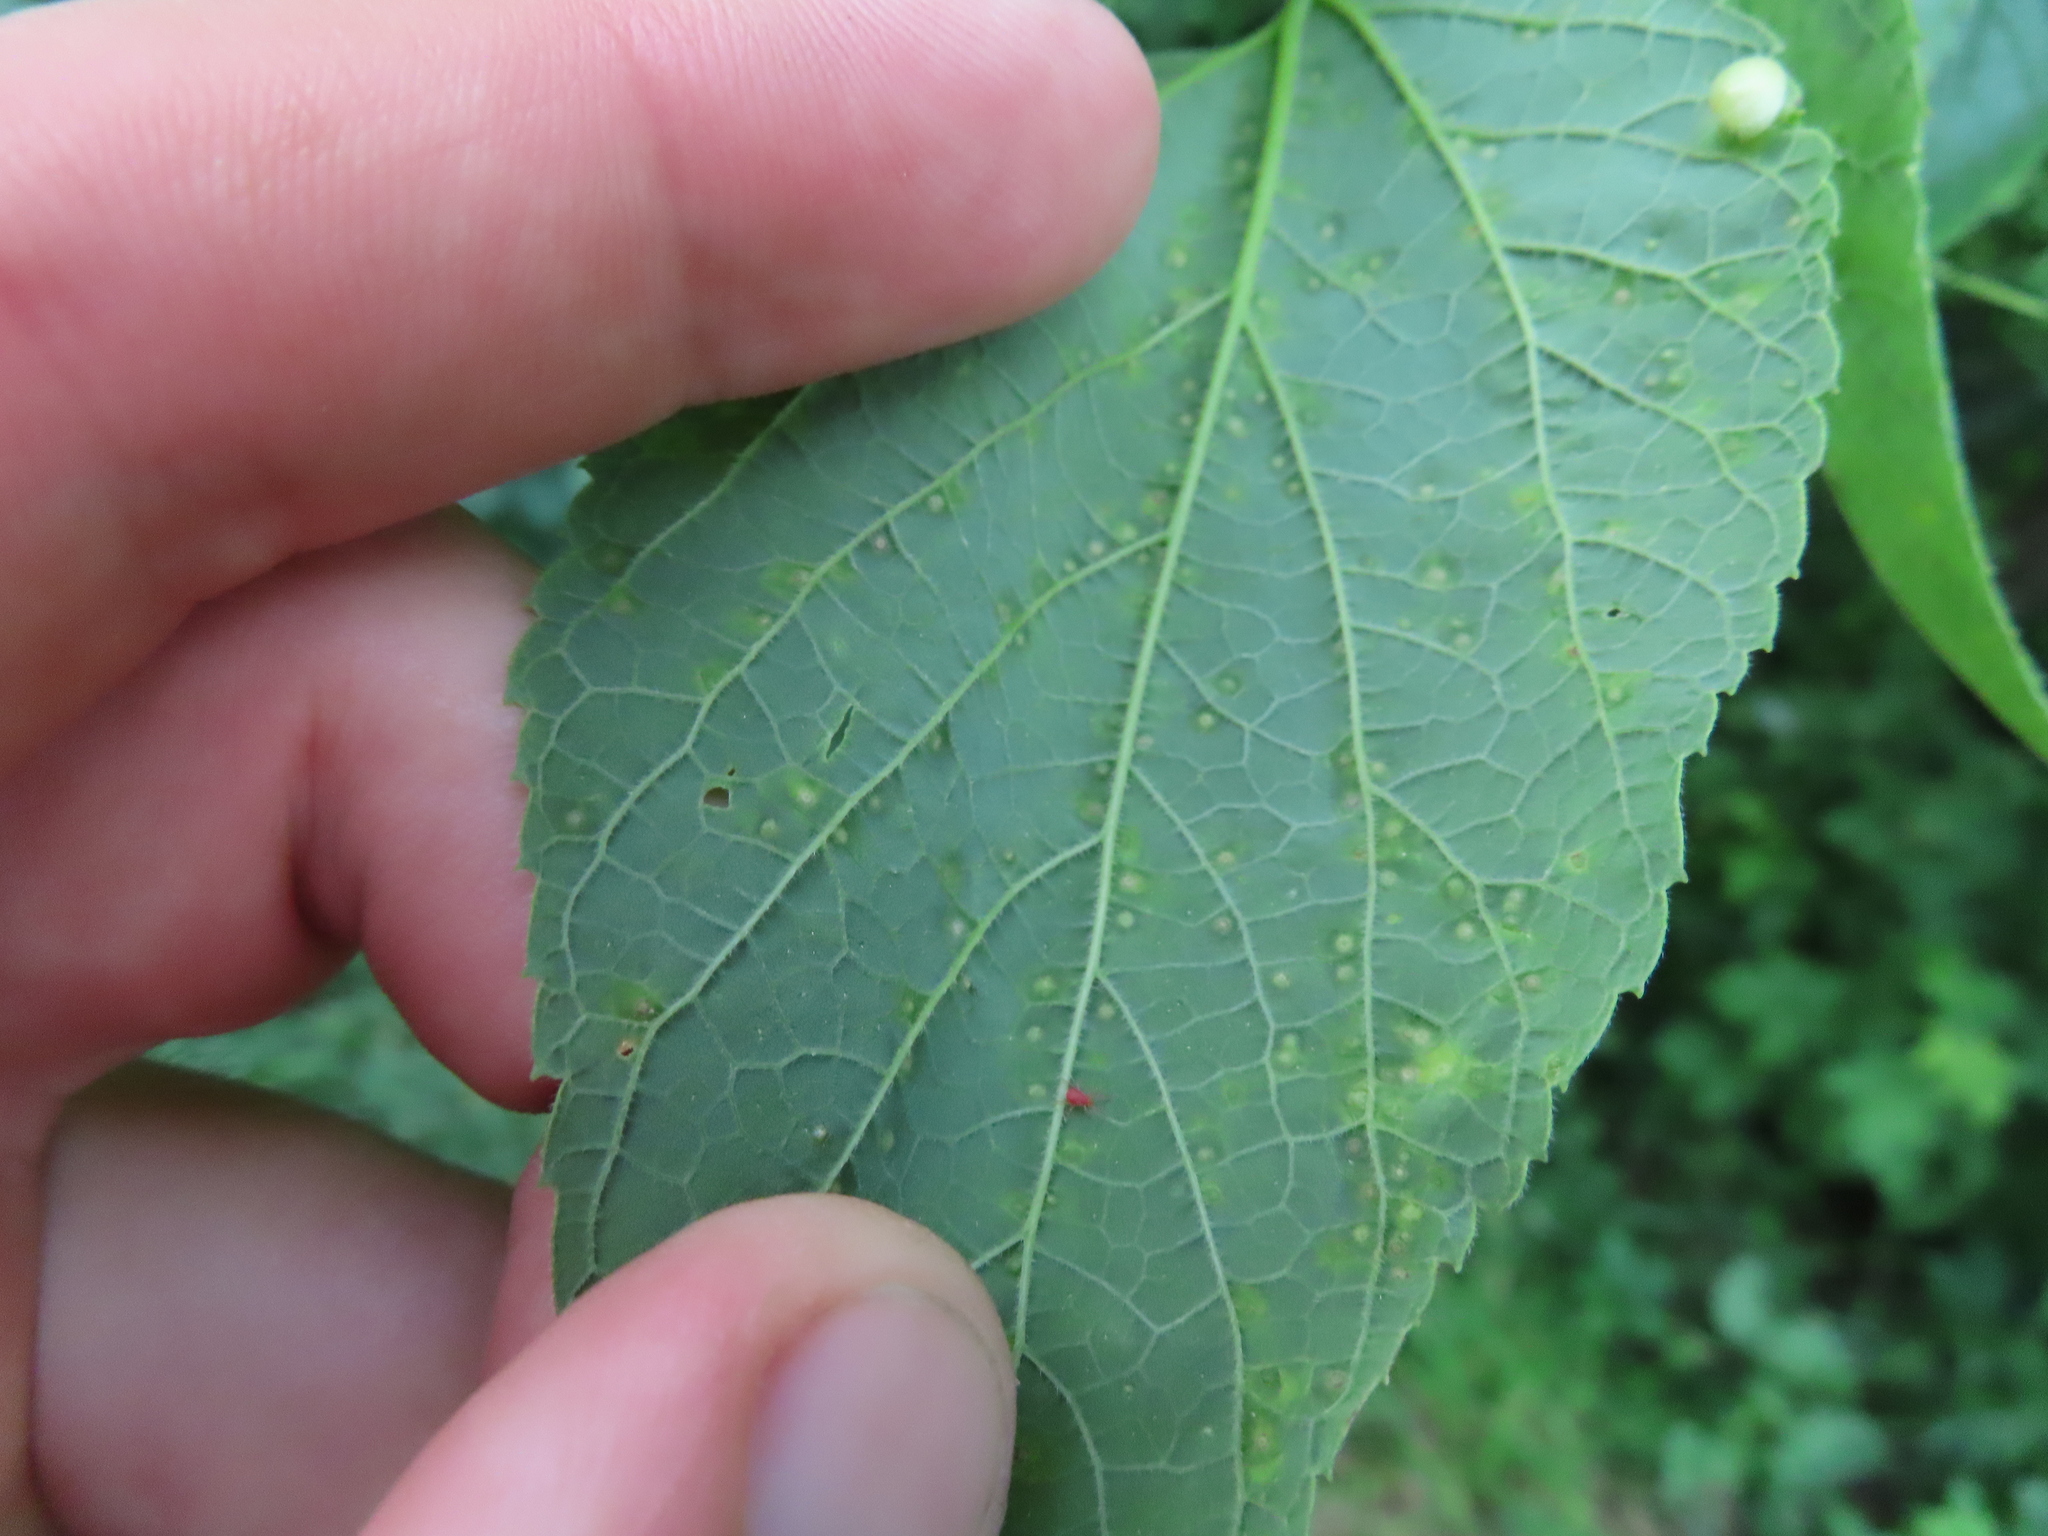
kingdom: Animalia
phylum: Arthropoda
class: Insecta
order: Hemiptera
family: Aphalaridae
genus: Pachypsylla
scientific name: Pachypsylla celtidisvesicula
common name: Hackberry blister gall psyllid
